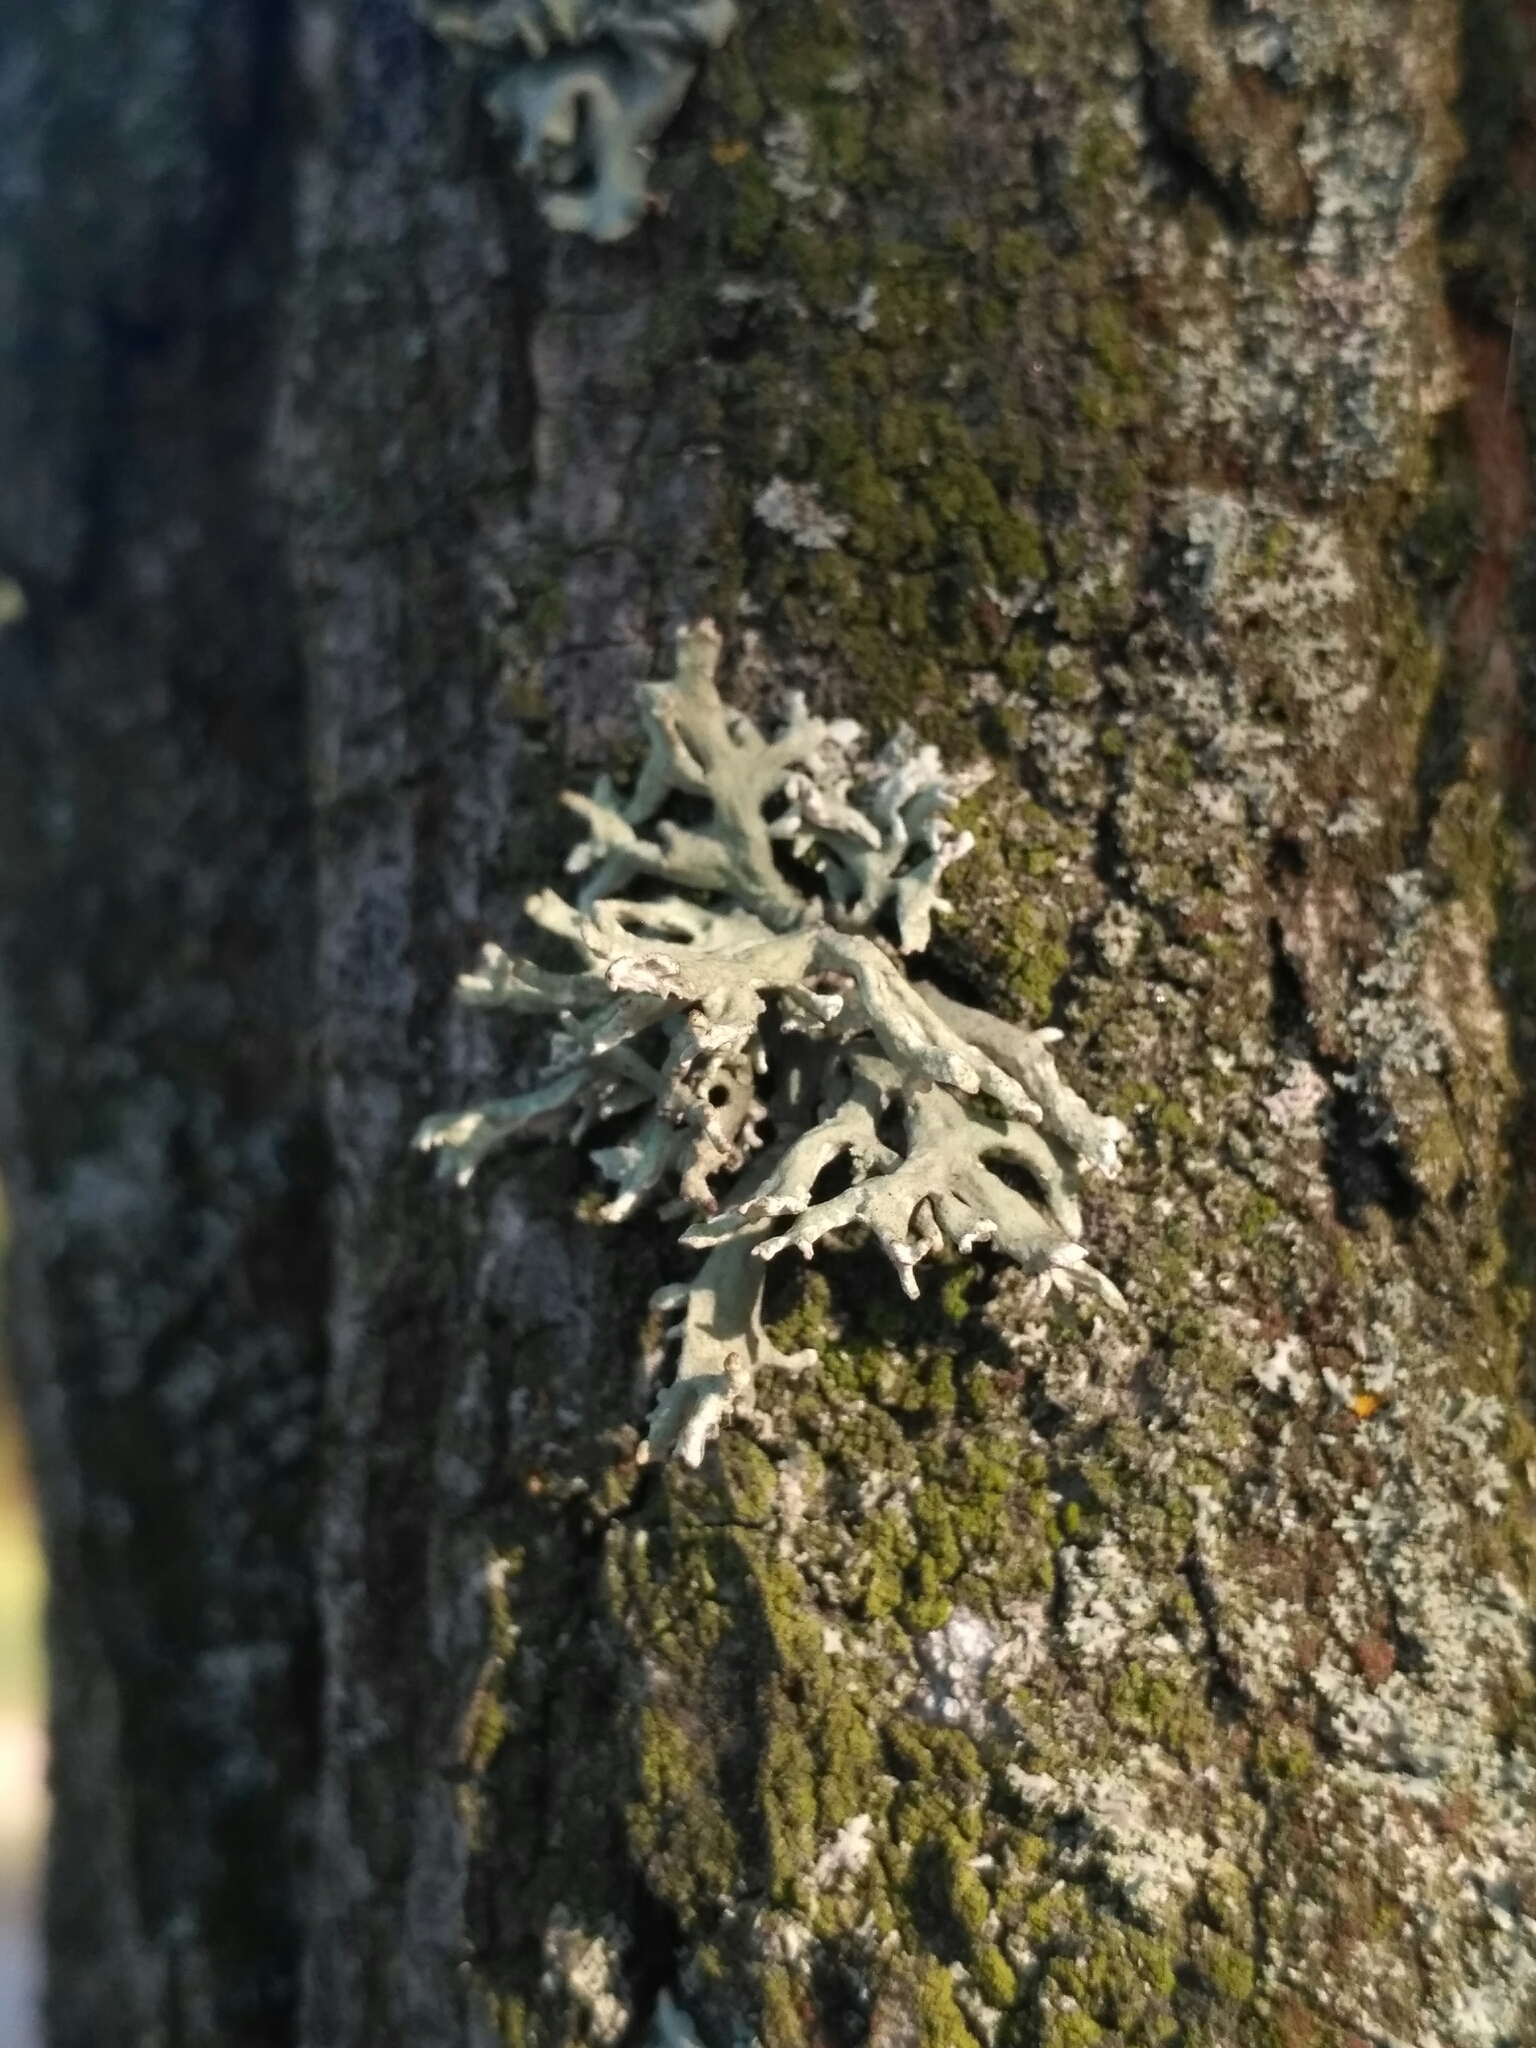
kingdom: Fungi
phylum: Ascomycota
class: Lecanoromycetes
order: Lecanorales
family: Parmeliaceae
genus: Evernia
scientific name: Evernia prunastri
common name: Oak moss
